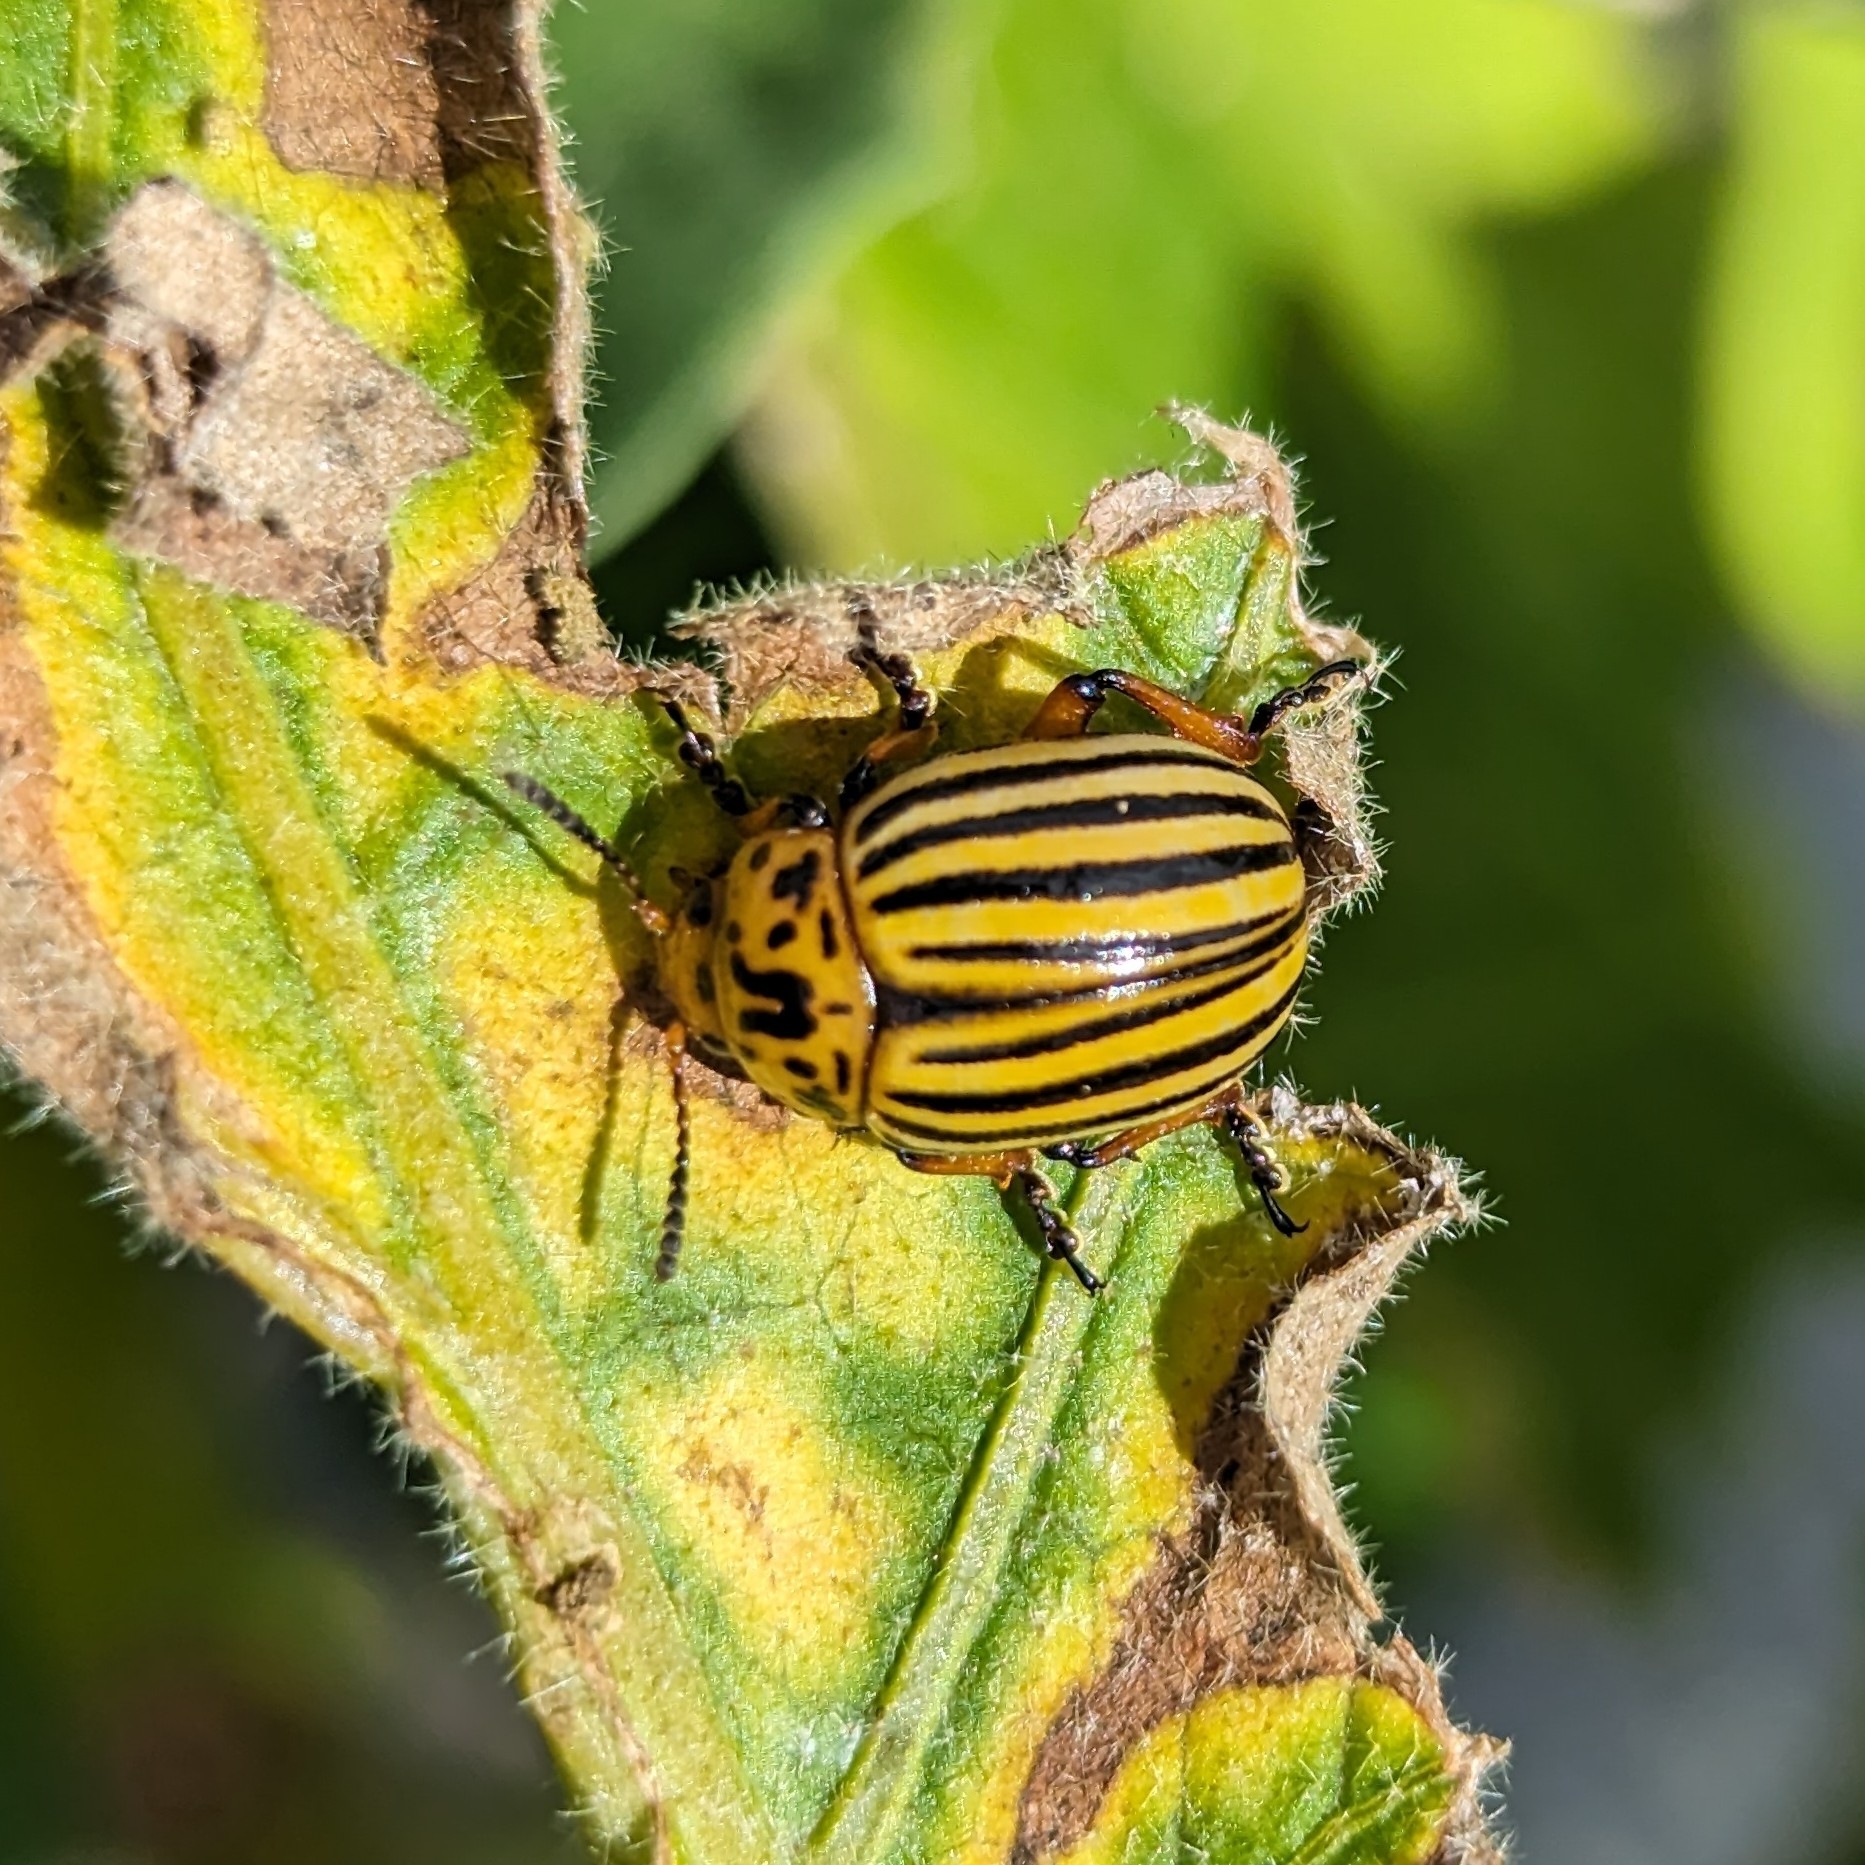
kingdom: Animalia
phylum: Arthropoda
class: Insecta
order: Coleoptera
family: Chrysomelidae
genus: Leptinotarsa
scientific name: Leptinotarsa decemlineata
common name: Colorado potato beetle
